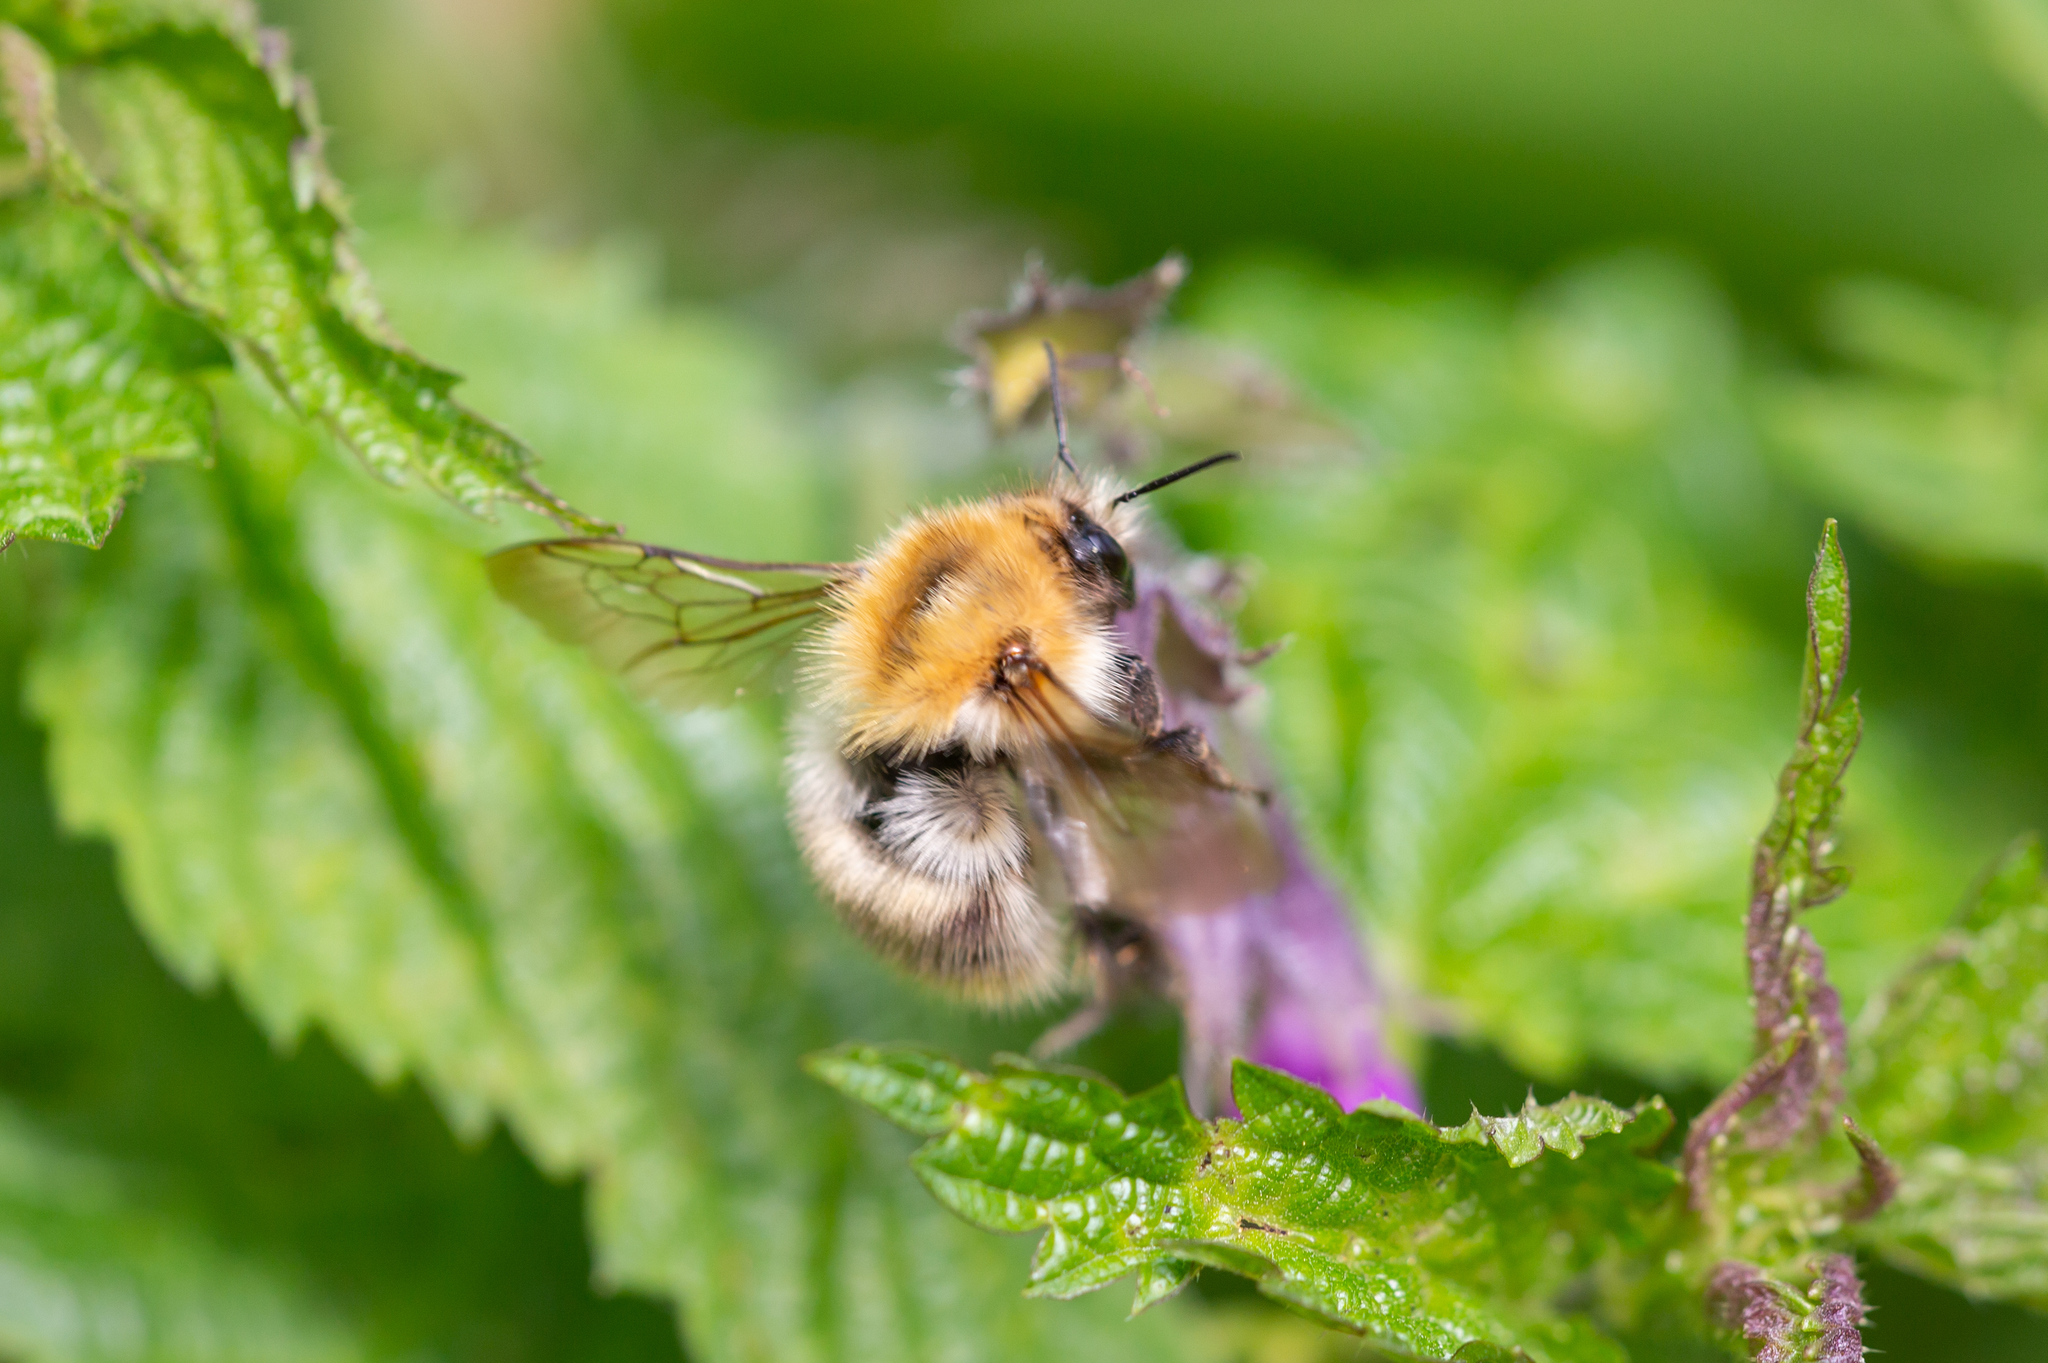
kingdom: Animalia
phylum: Arthropoda
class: Insecta
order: Hymenoptera
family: Apidae
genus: Bombus
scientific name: Bombus pascuorum
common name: Common carder bee
